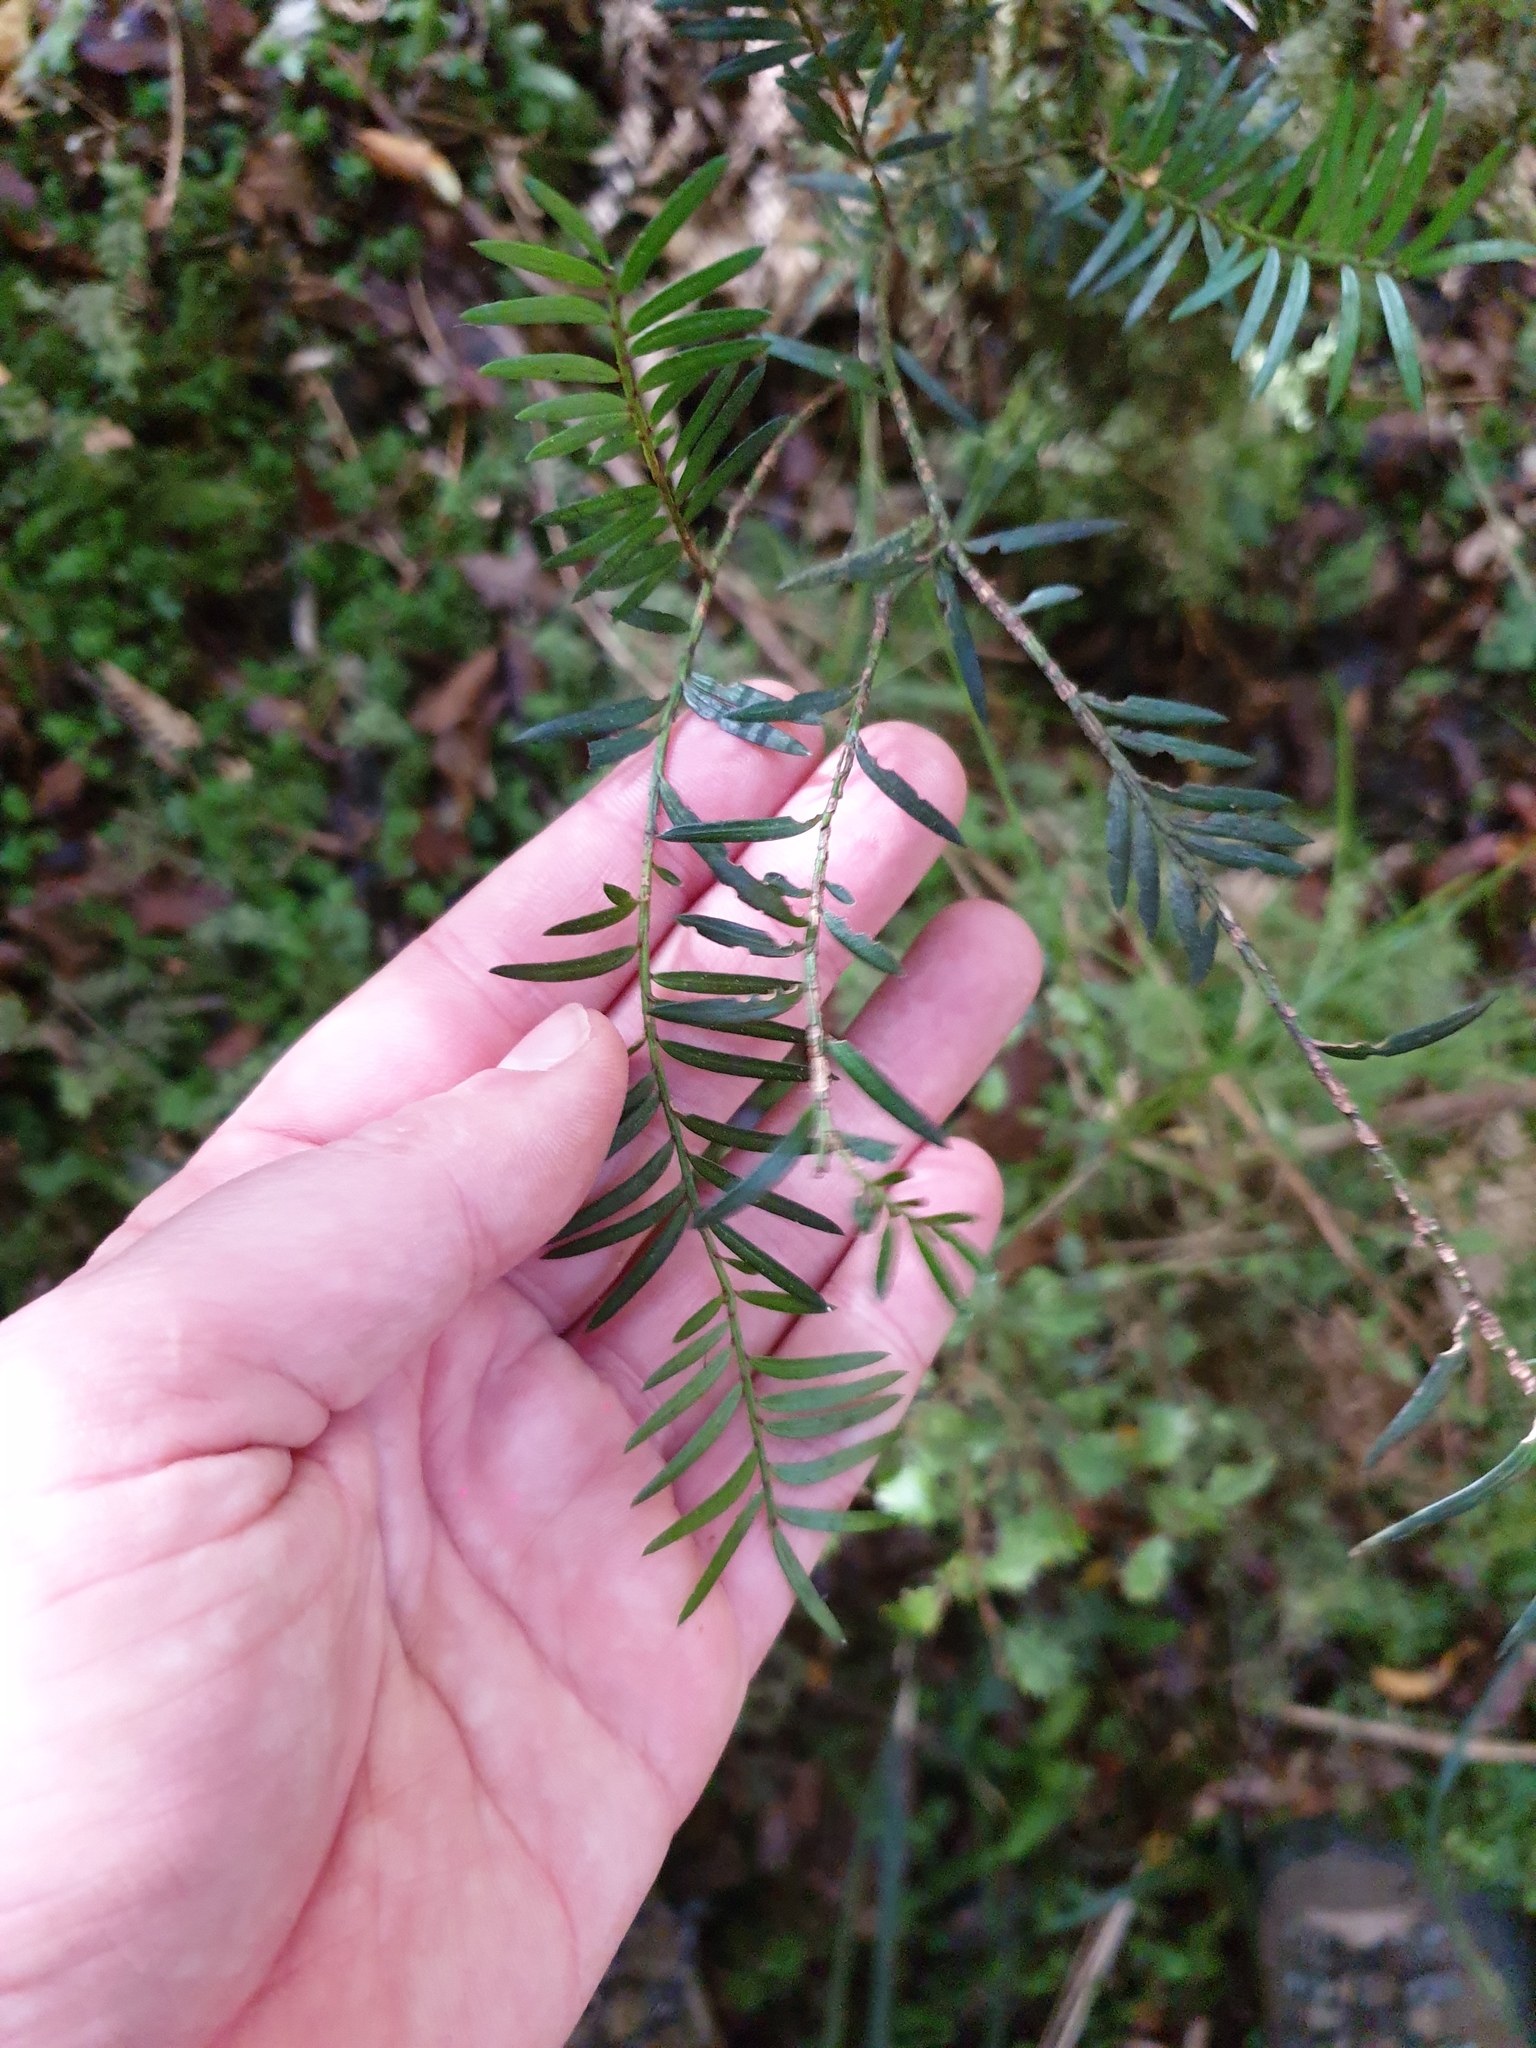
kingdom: Plantae
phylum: Tracheophyta
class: Pinopsida
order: Pinales
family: Podocarpaceae
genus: Prumnopitys
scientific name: Prumnopitys taxifolia
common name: Matai
